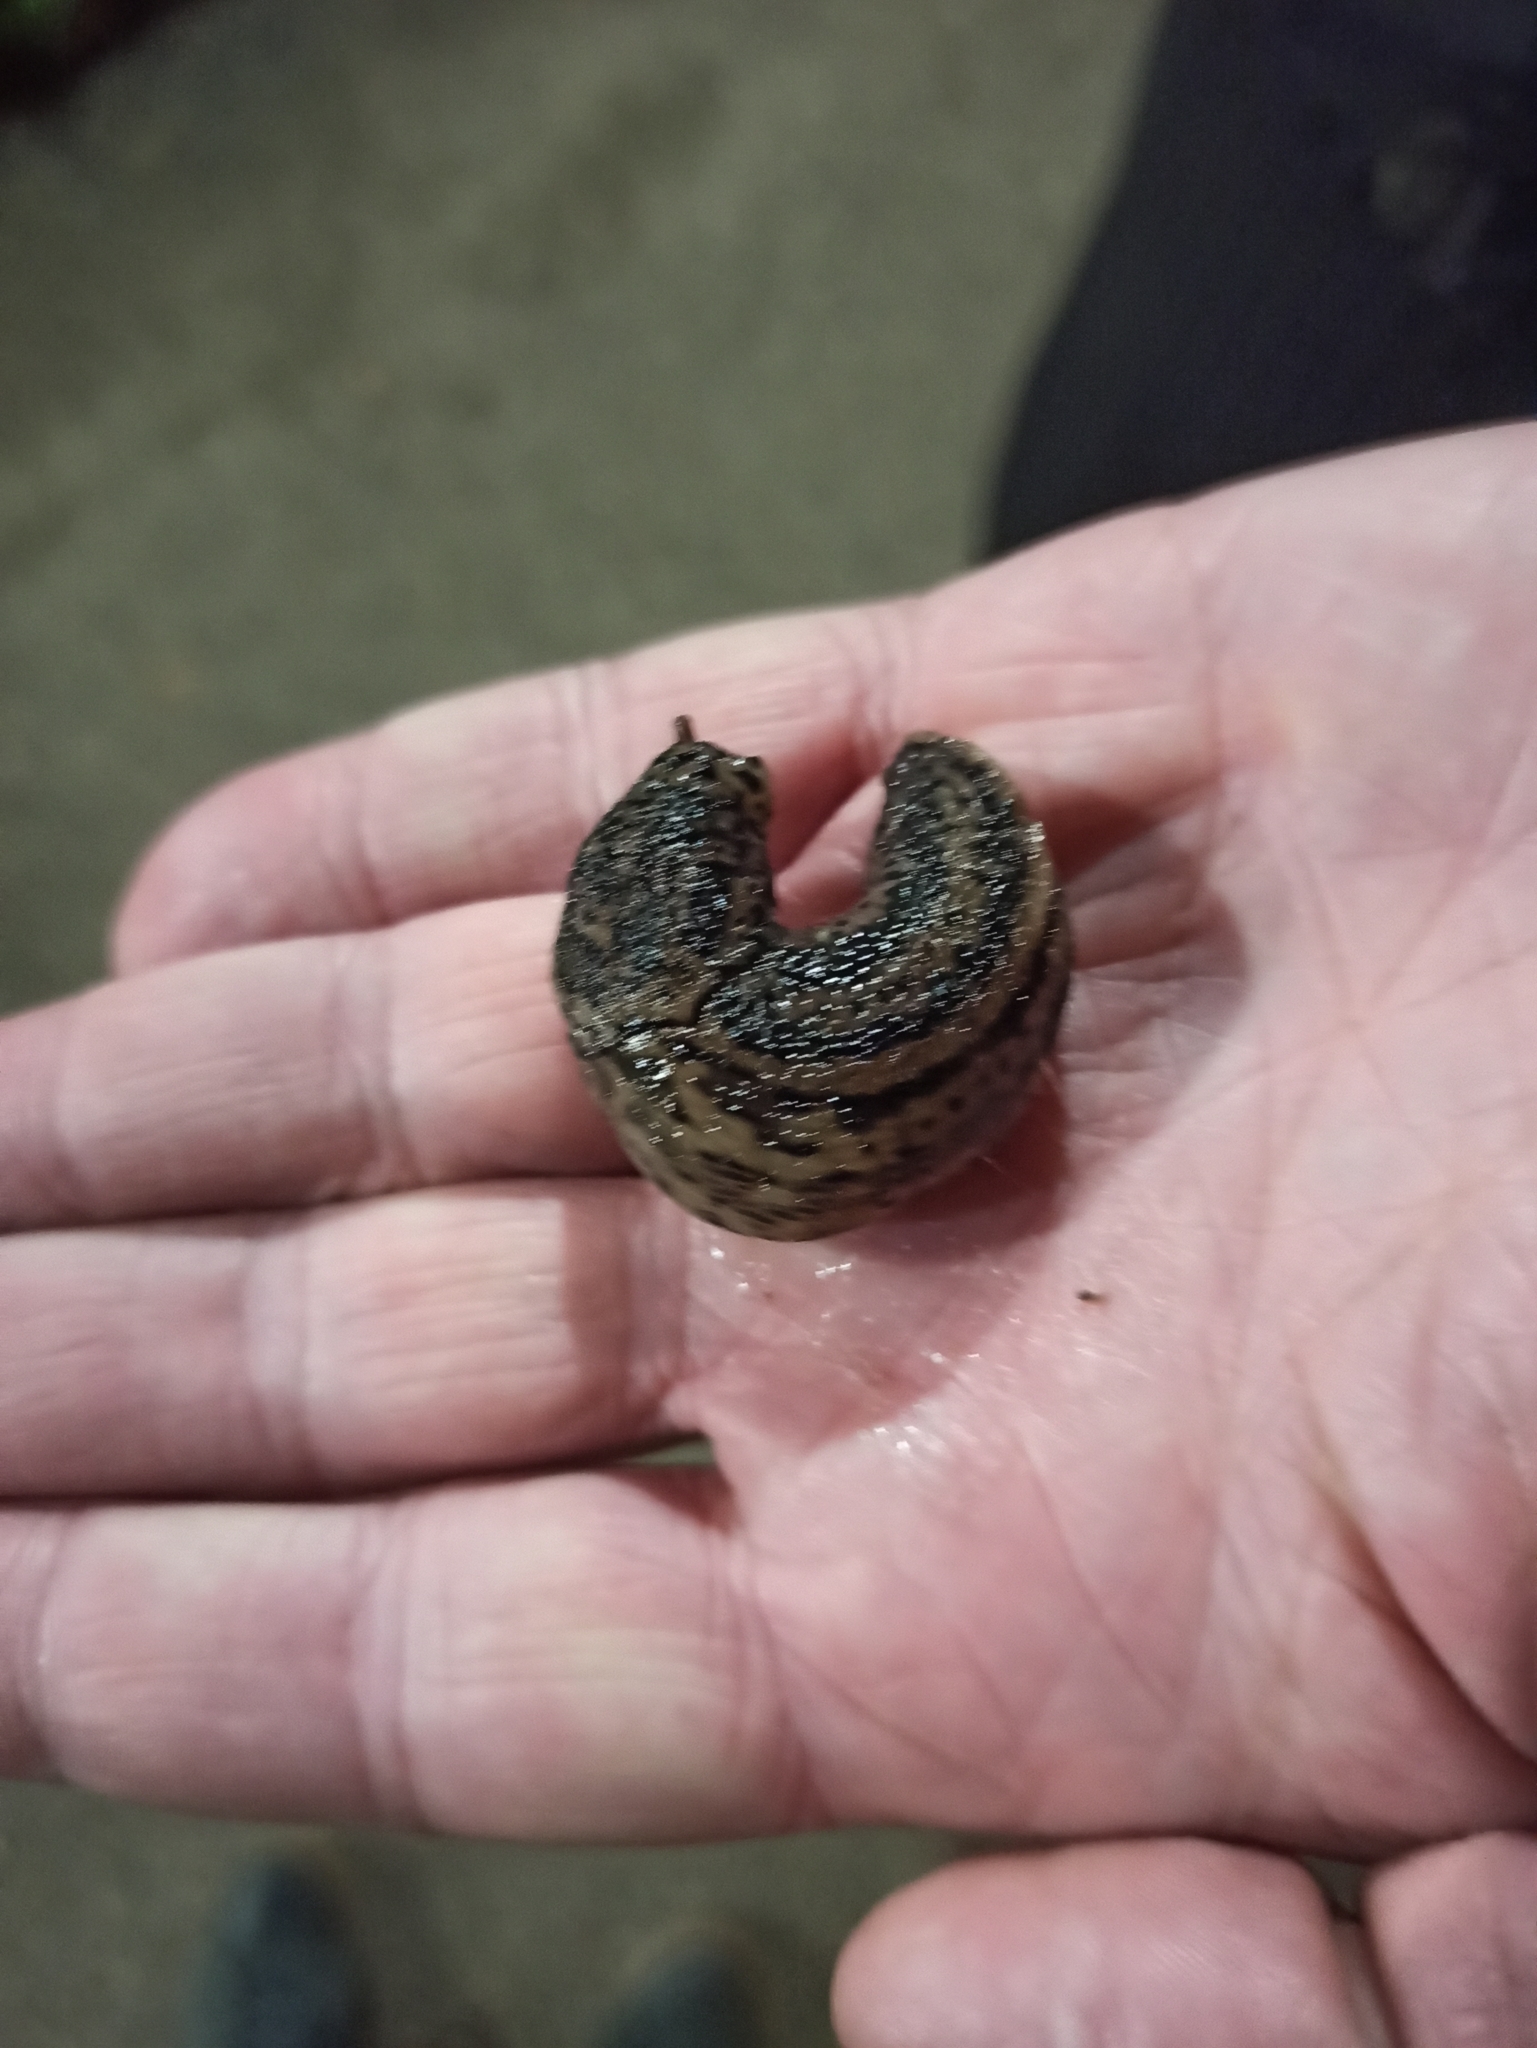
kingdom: Animalia
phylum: Mollusca
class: Gastropoda
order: Stylommatophora
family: Limacidae
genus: Limax
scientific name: Limax maximus
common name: Great grey slug
